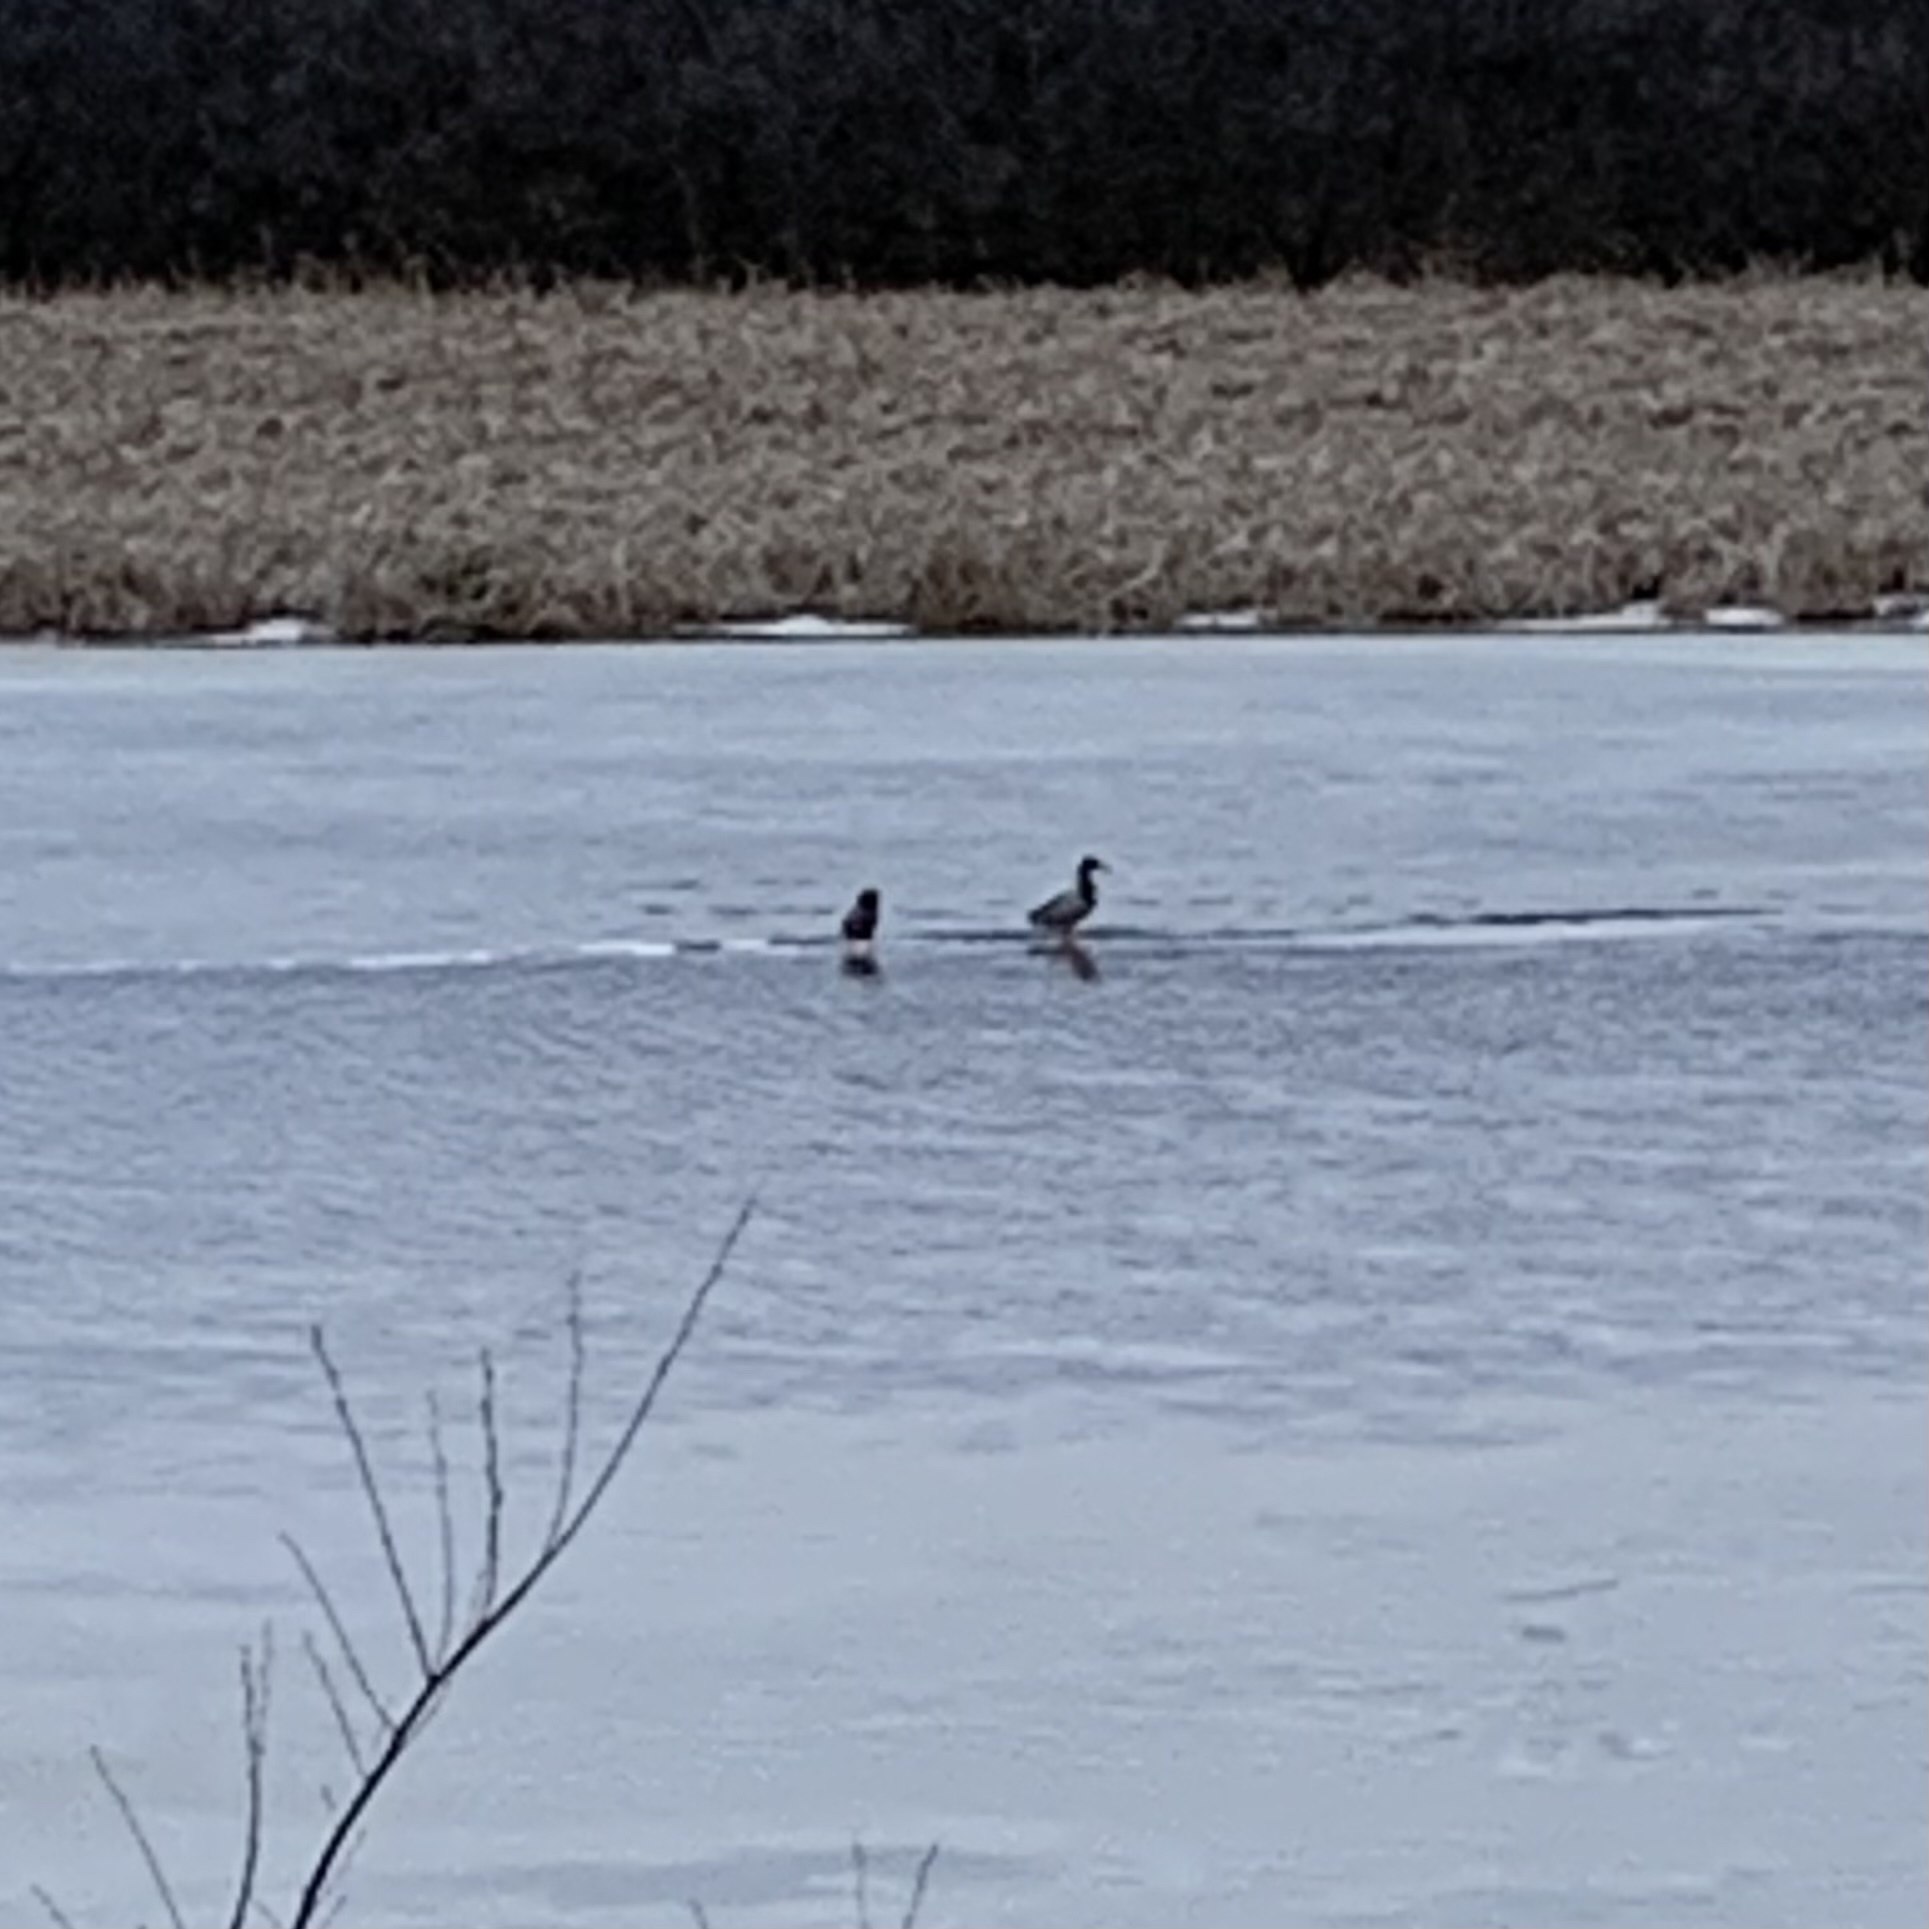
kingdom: Animalia
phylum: Chordata
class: Aves
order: Anseriformes
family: Anatidae
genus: Anas
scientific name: Anas platyrhynchos
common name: Mallard
